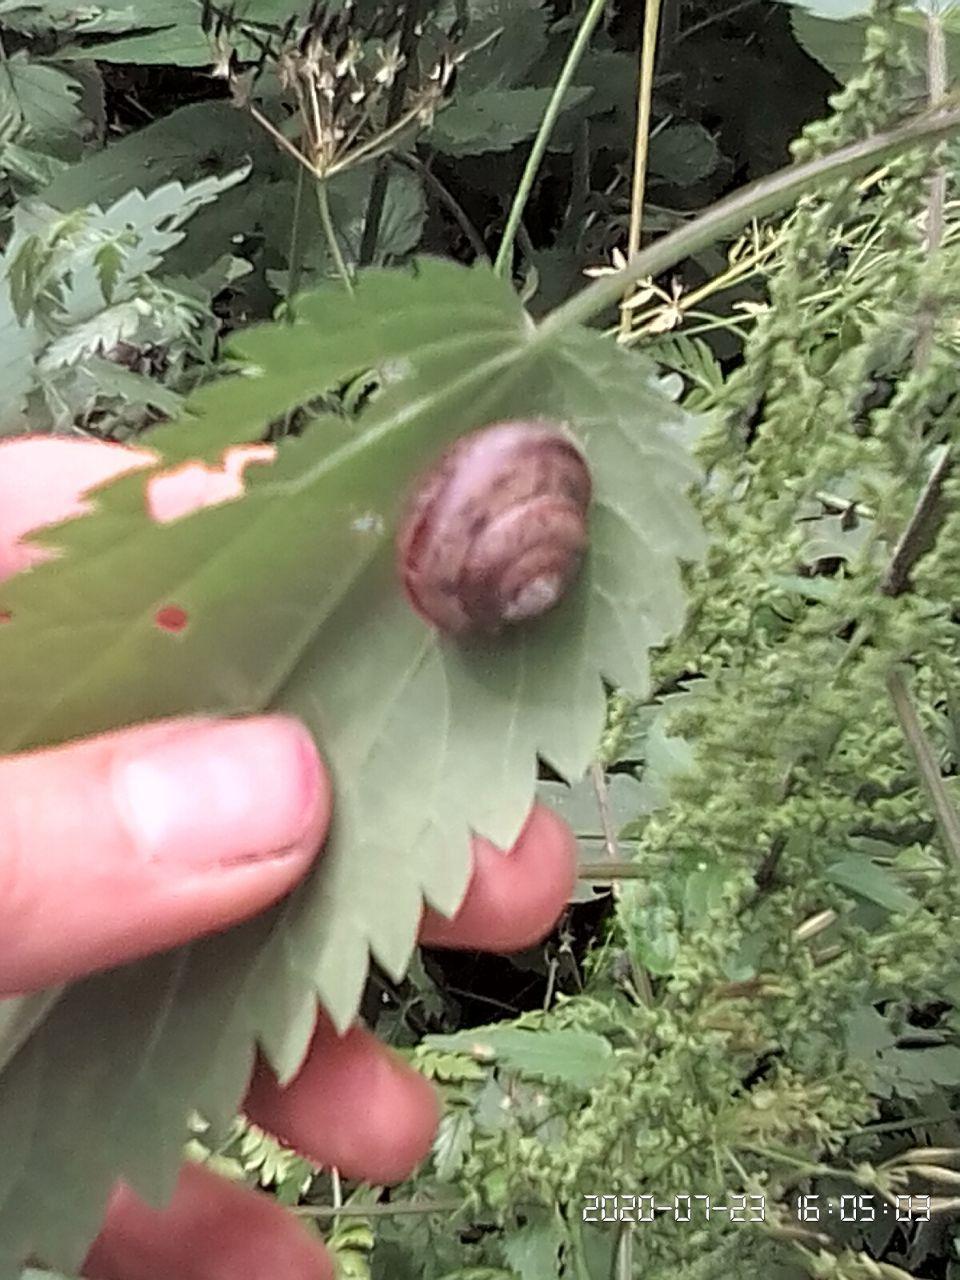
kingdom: Animalia
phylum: Mollusca
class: Gastropoda
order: Stylommatophora
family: Camaenidae
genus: Fruticicola
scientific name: Fruticicola fruticum
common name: Bush snail
